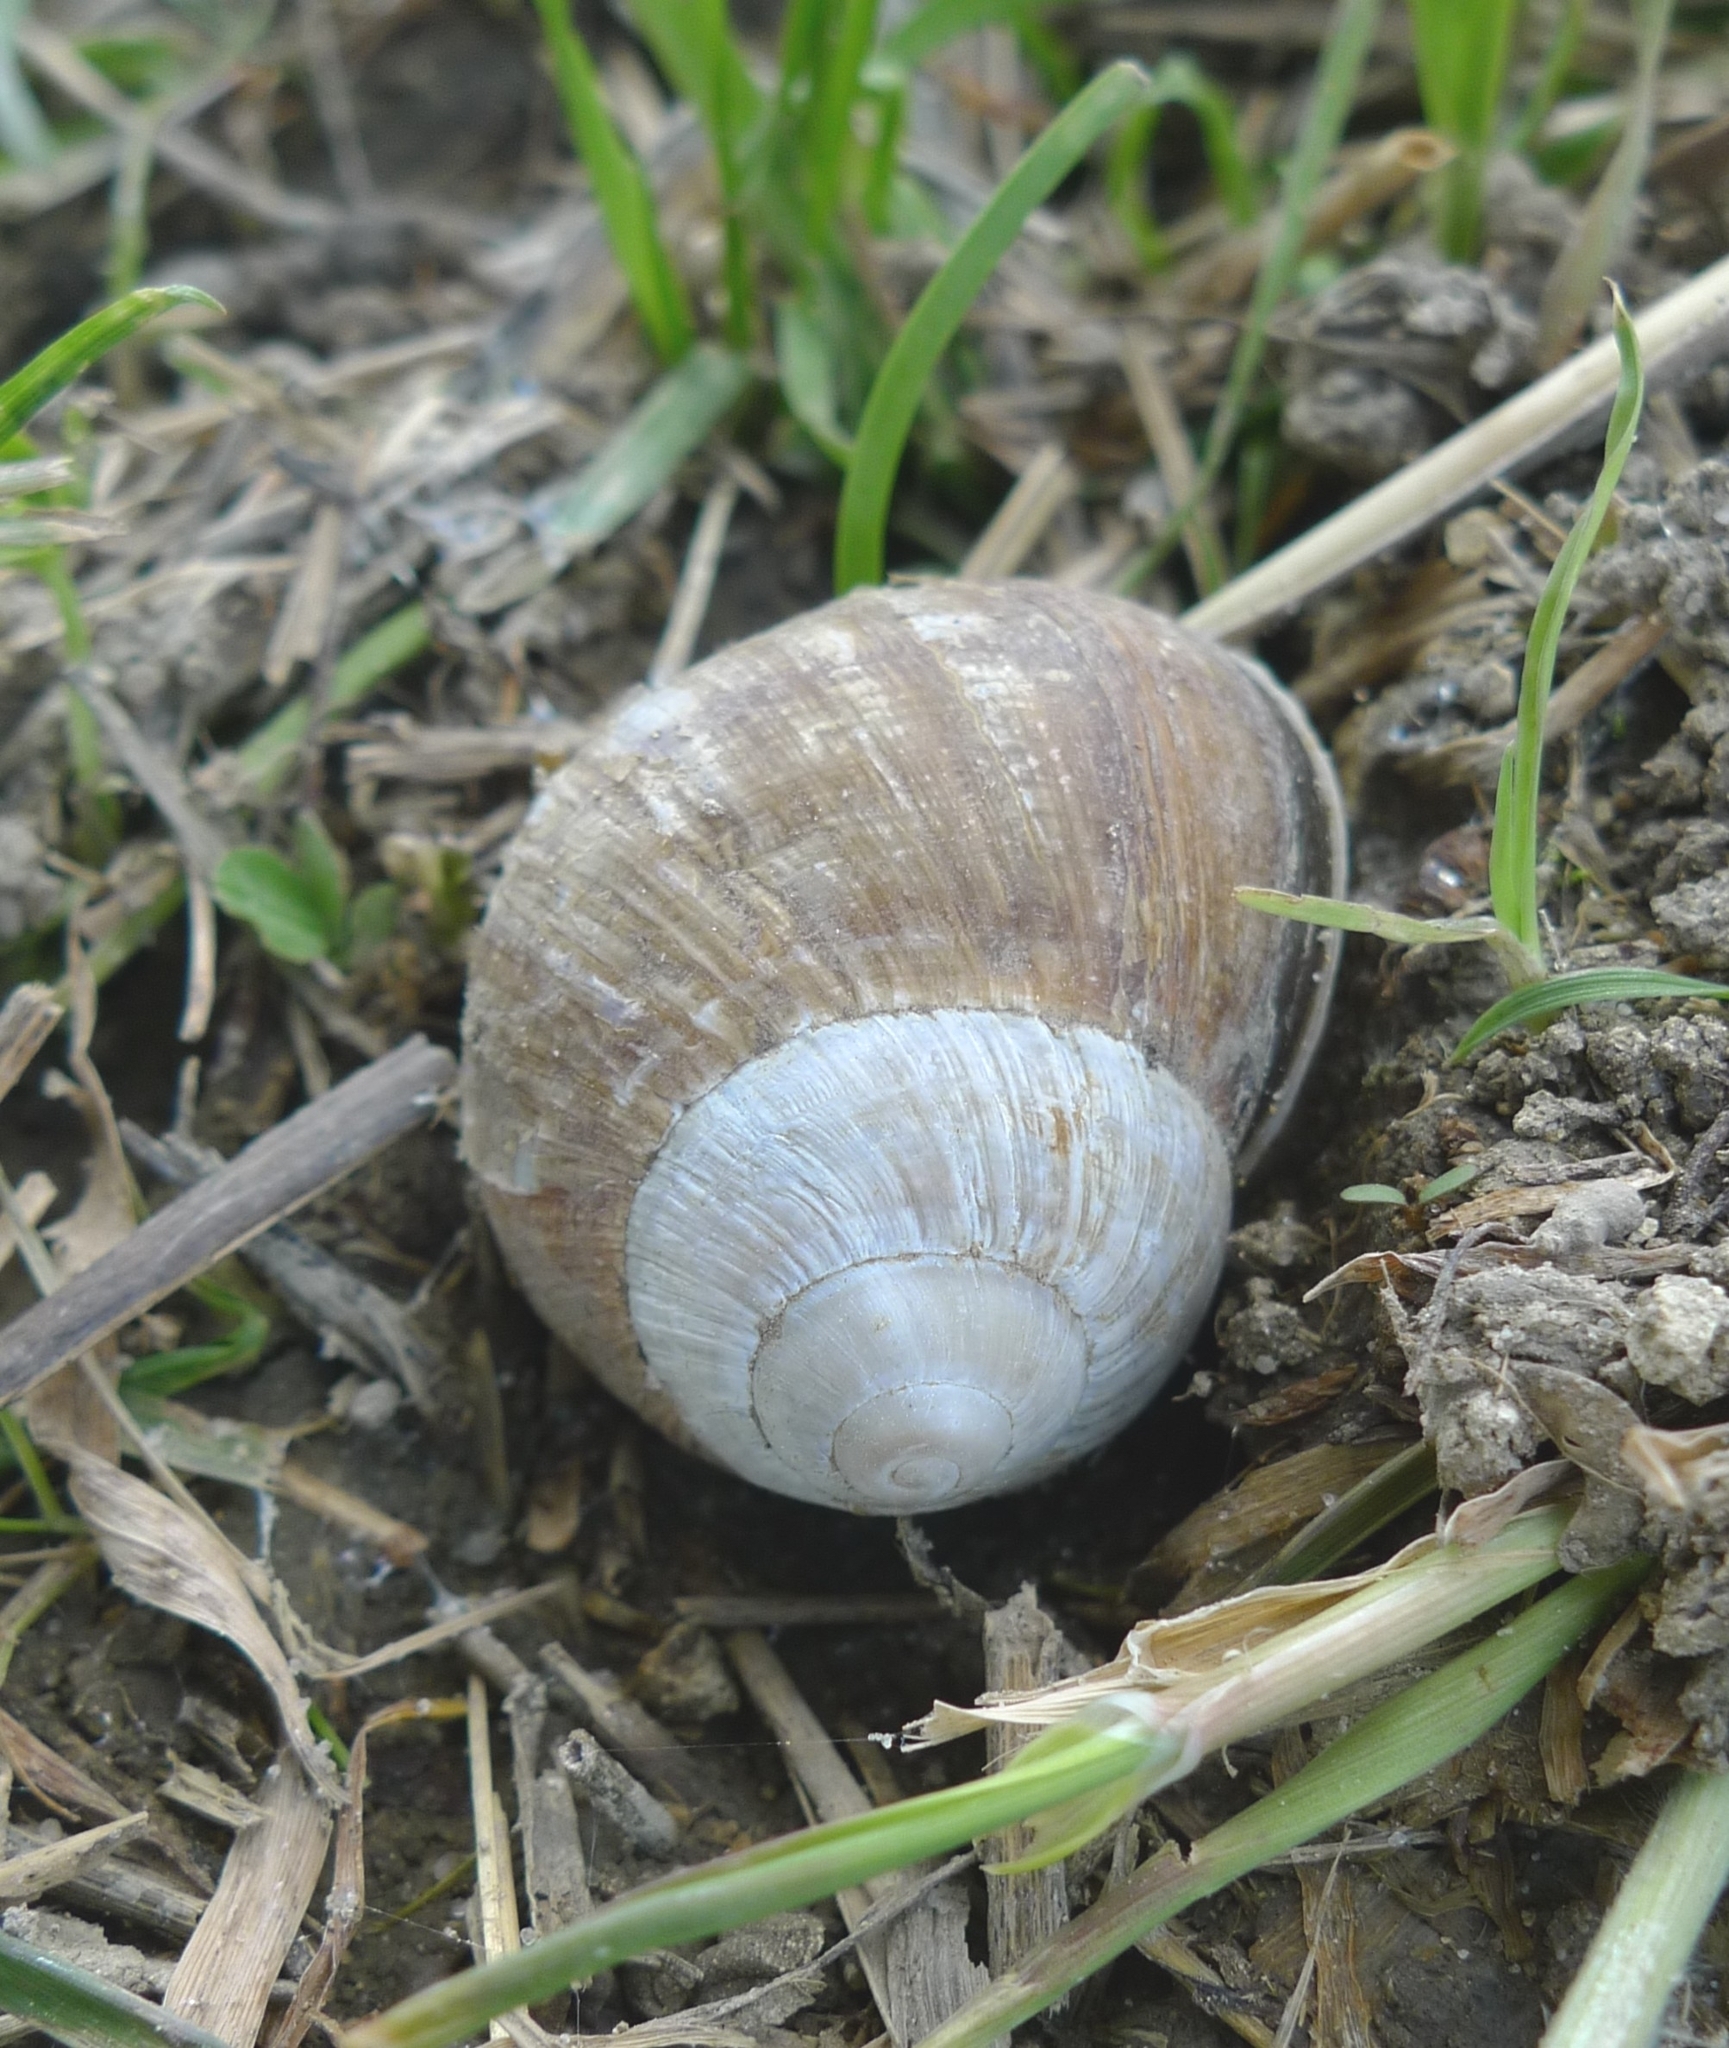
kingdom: Animalia
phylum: Mollusca
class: Gastropoda
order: Stylommatophora
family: Helicidae
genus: Helix
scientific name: Helix pomatia
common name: Roman snail
